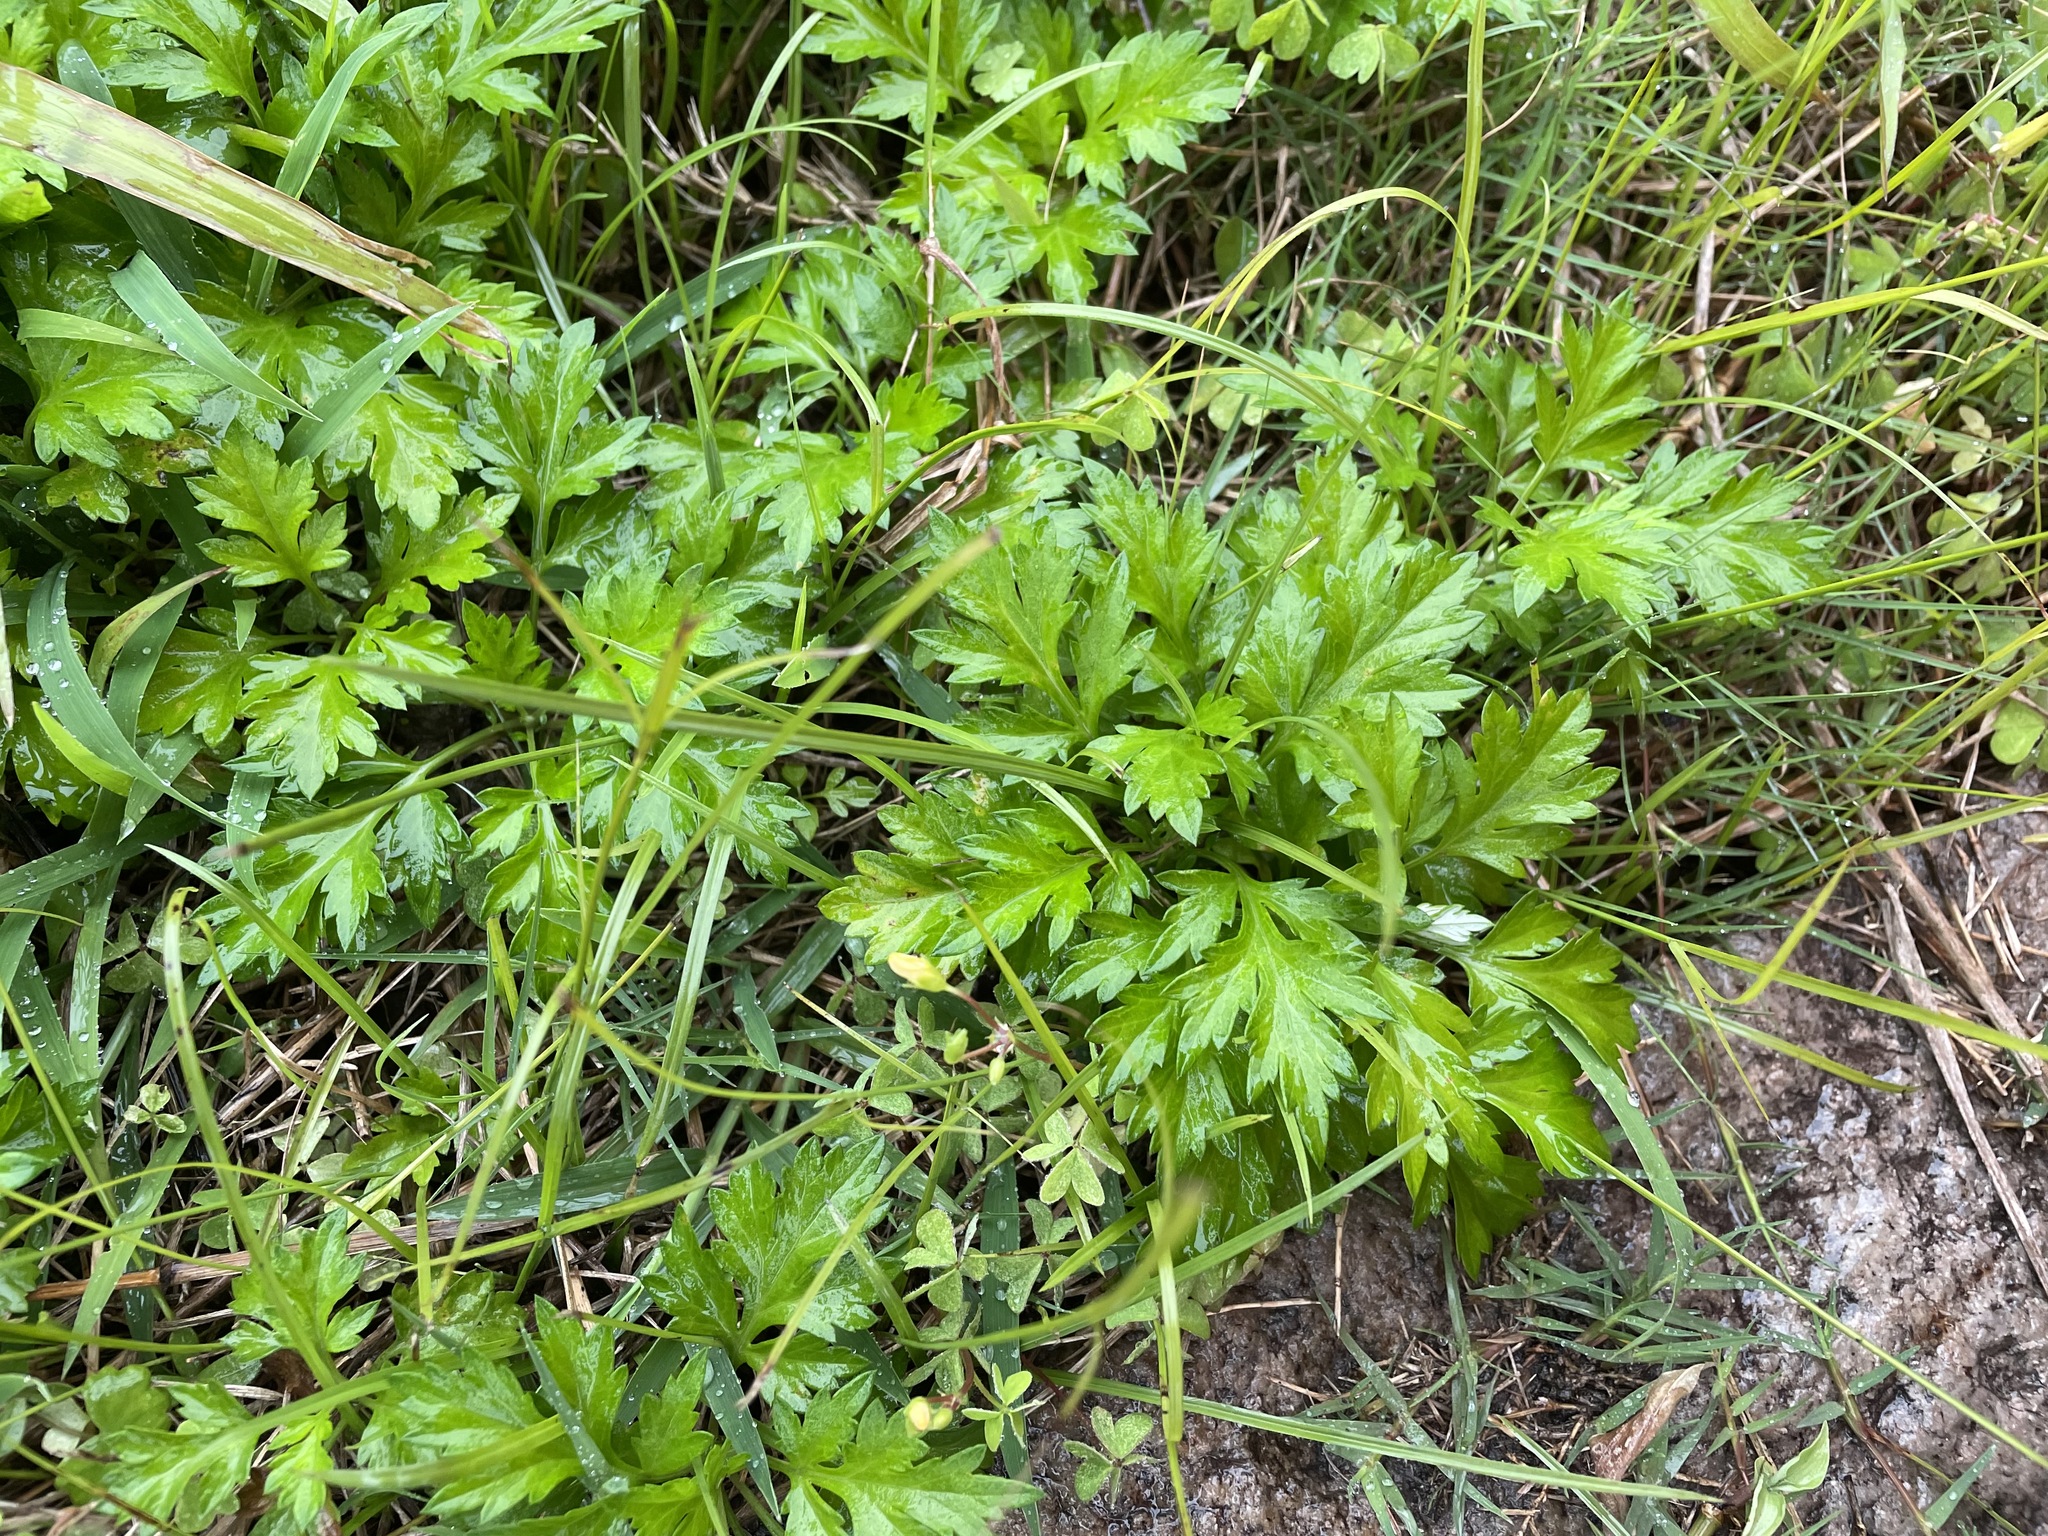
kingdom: Plantae
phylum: Tracheophyta
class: Magnoliopsida
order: Asterales
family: Asteraceae
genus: Artemisia
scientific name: Artemisia indica
